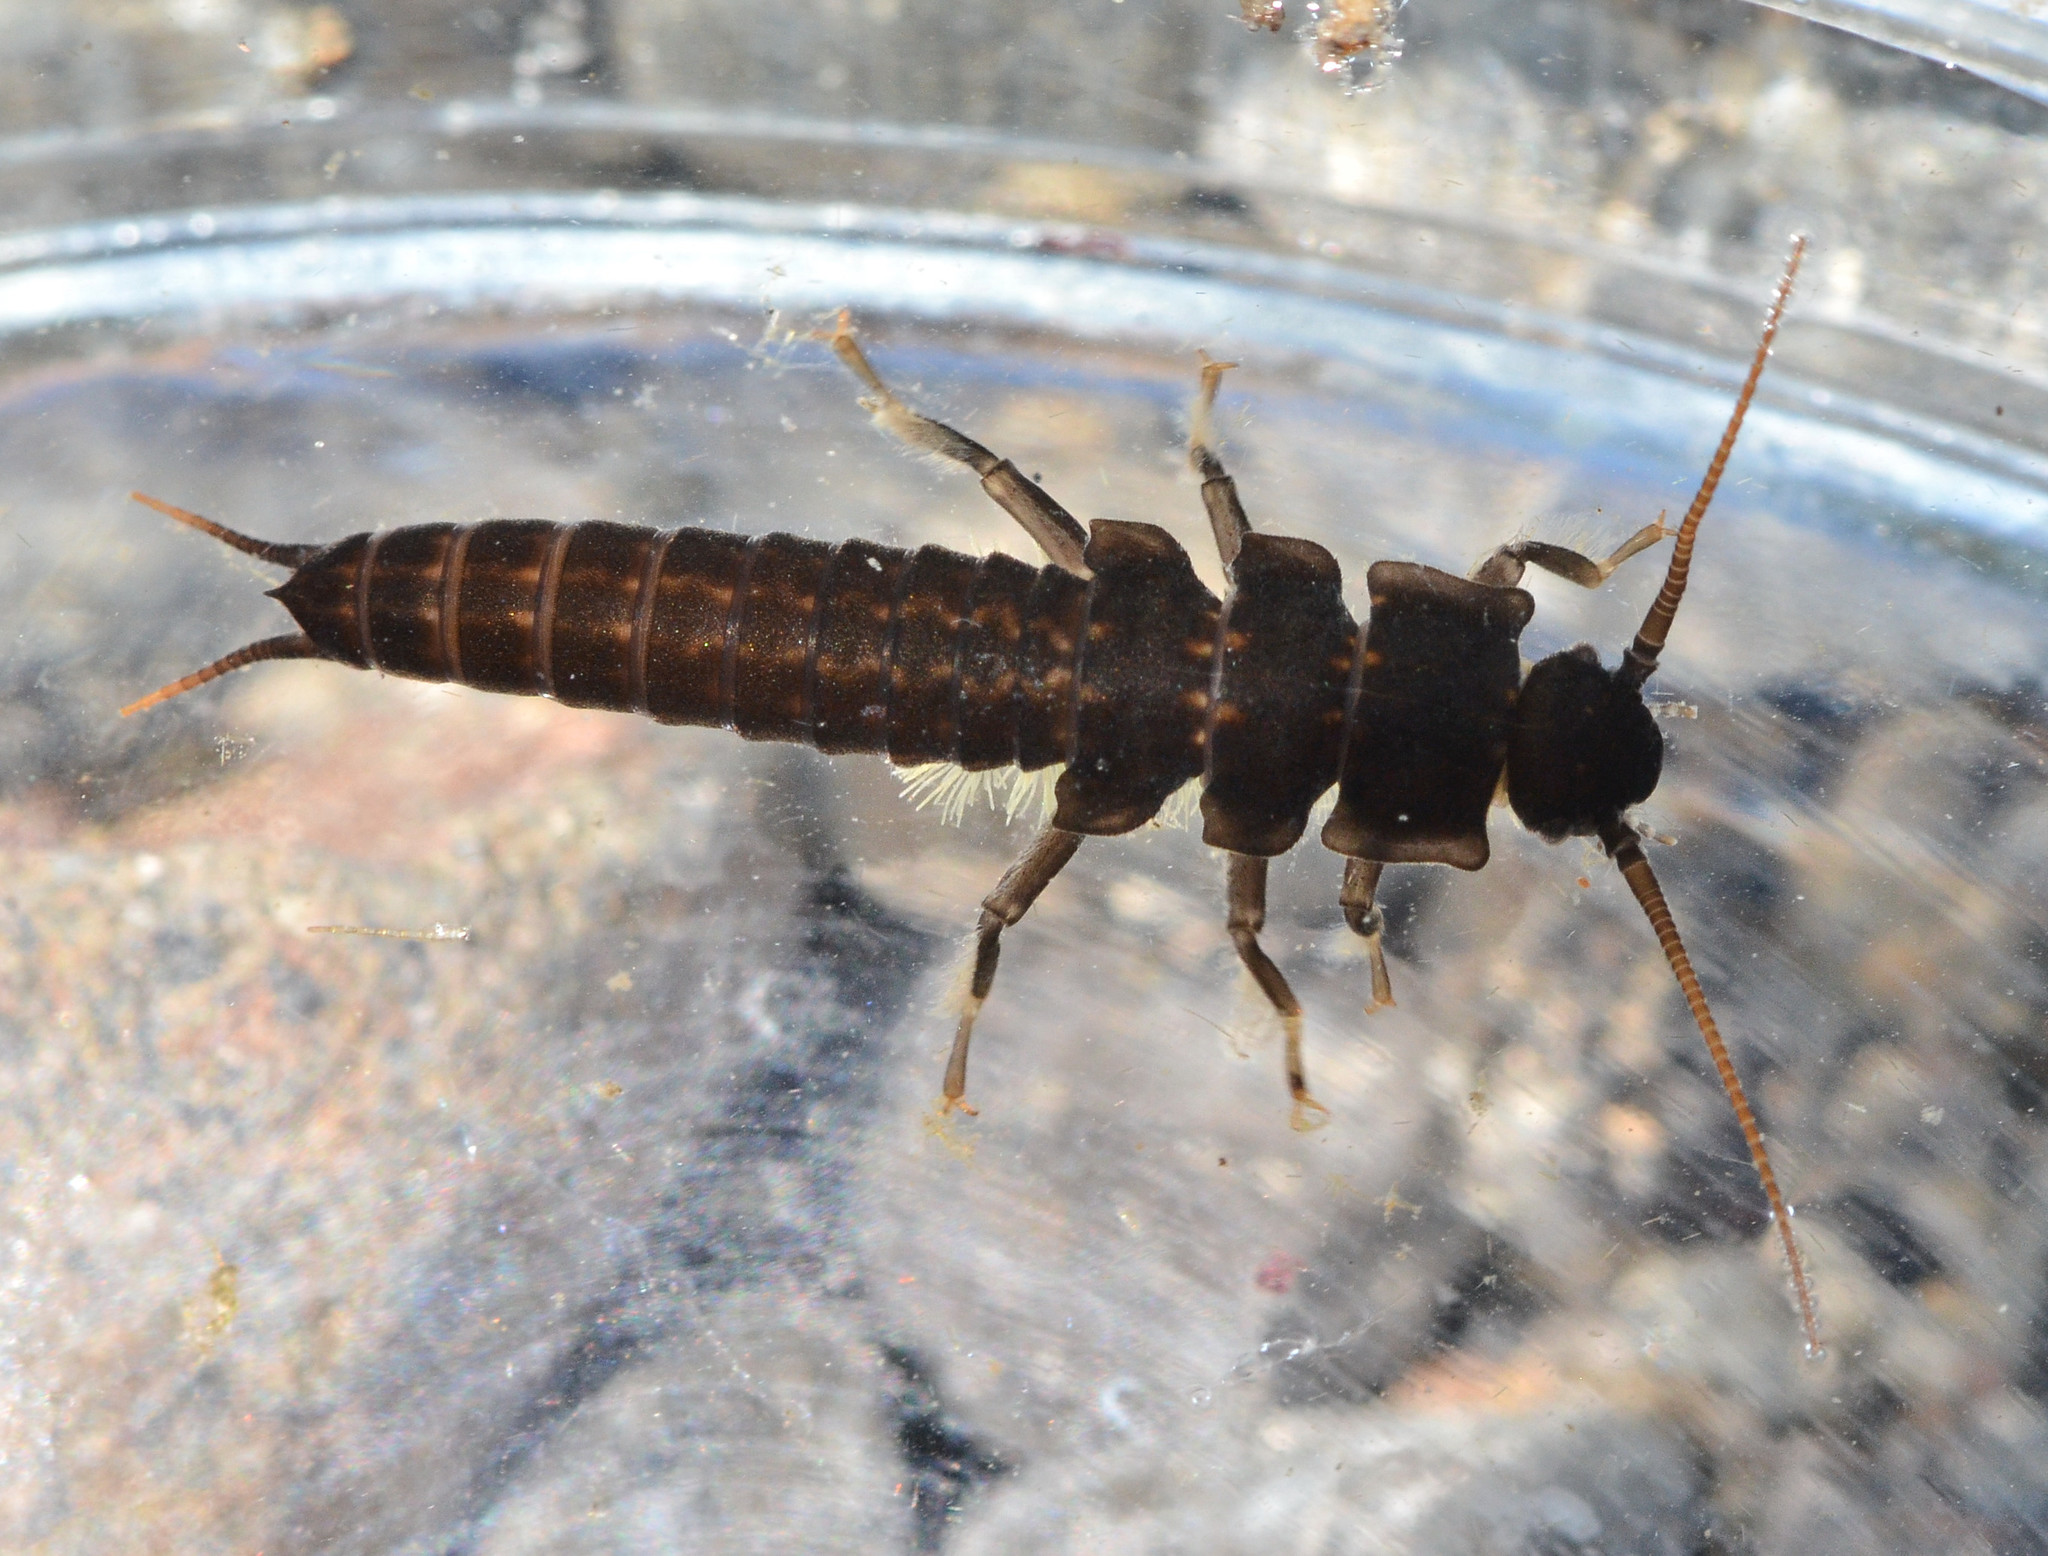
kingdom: Animalia
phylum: Arthropoda
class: Insecta
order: Plecoptera
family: Pteronarcyidae
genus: Pteronarcys
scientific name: Pteronarcys princeps
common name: Ebony salmonfly
